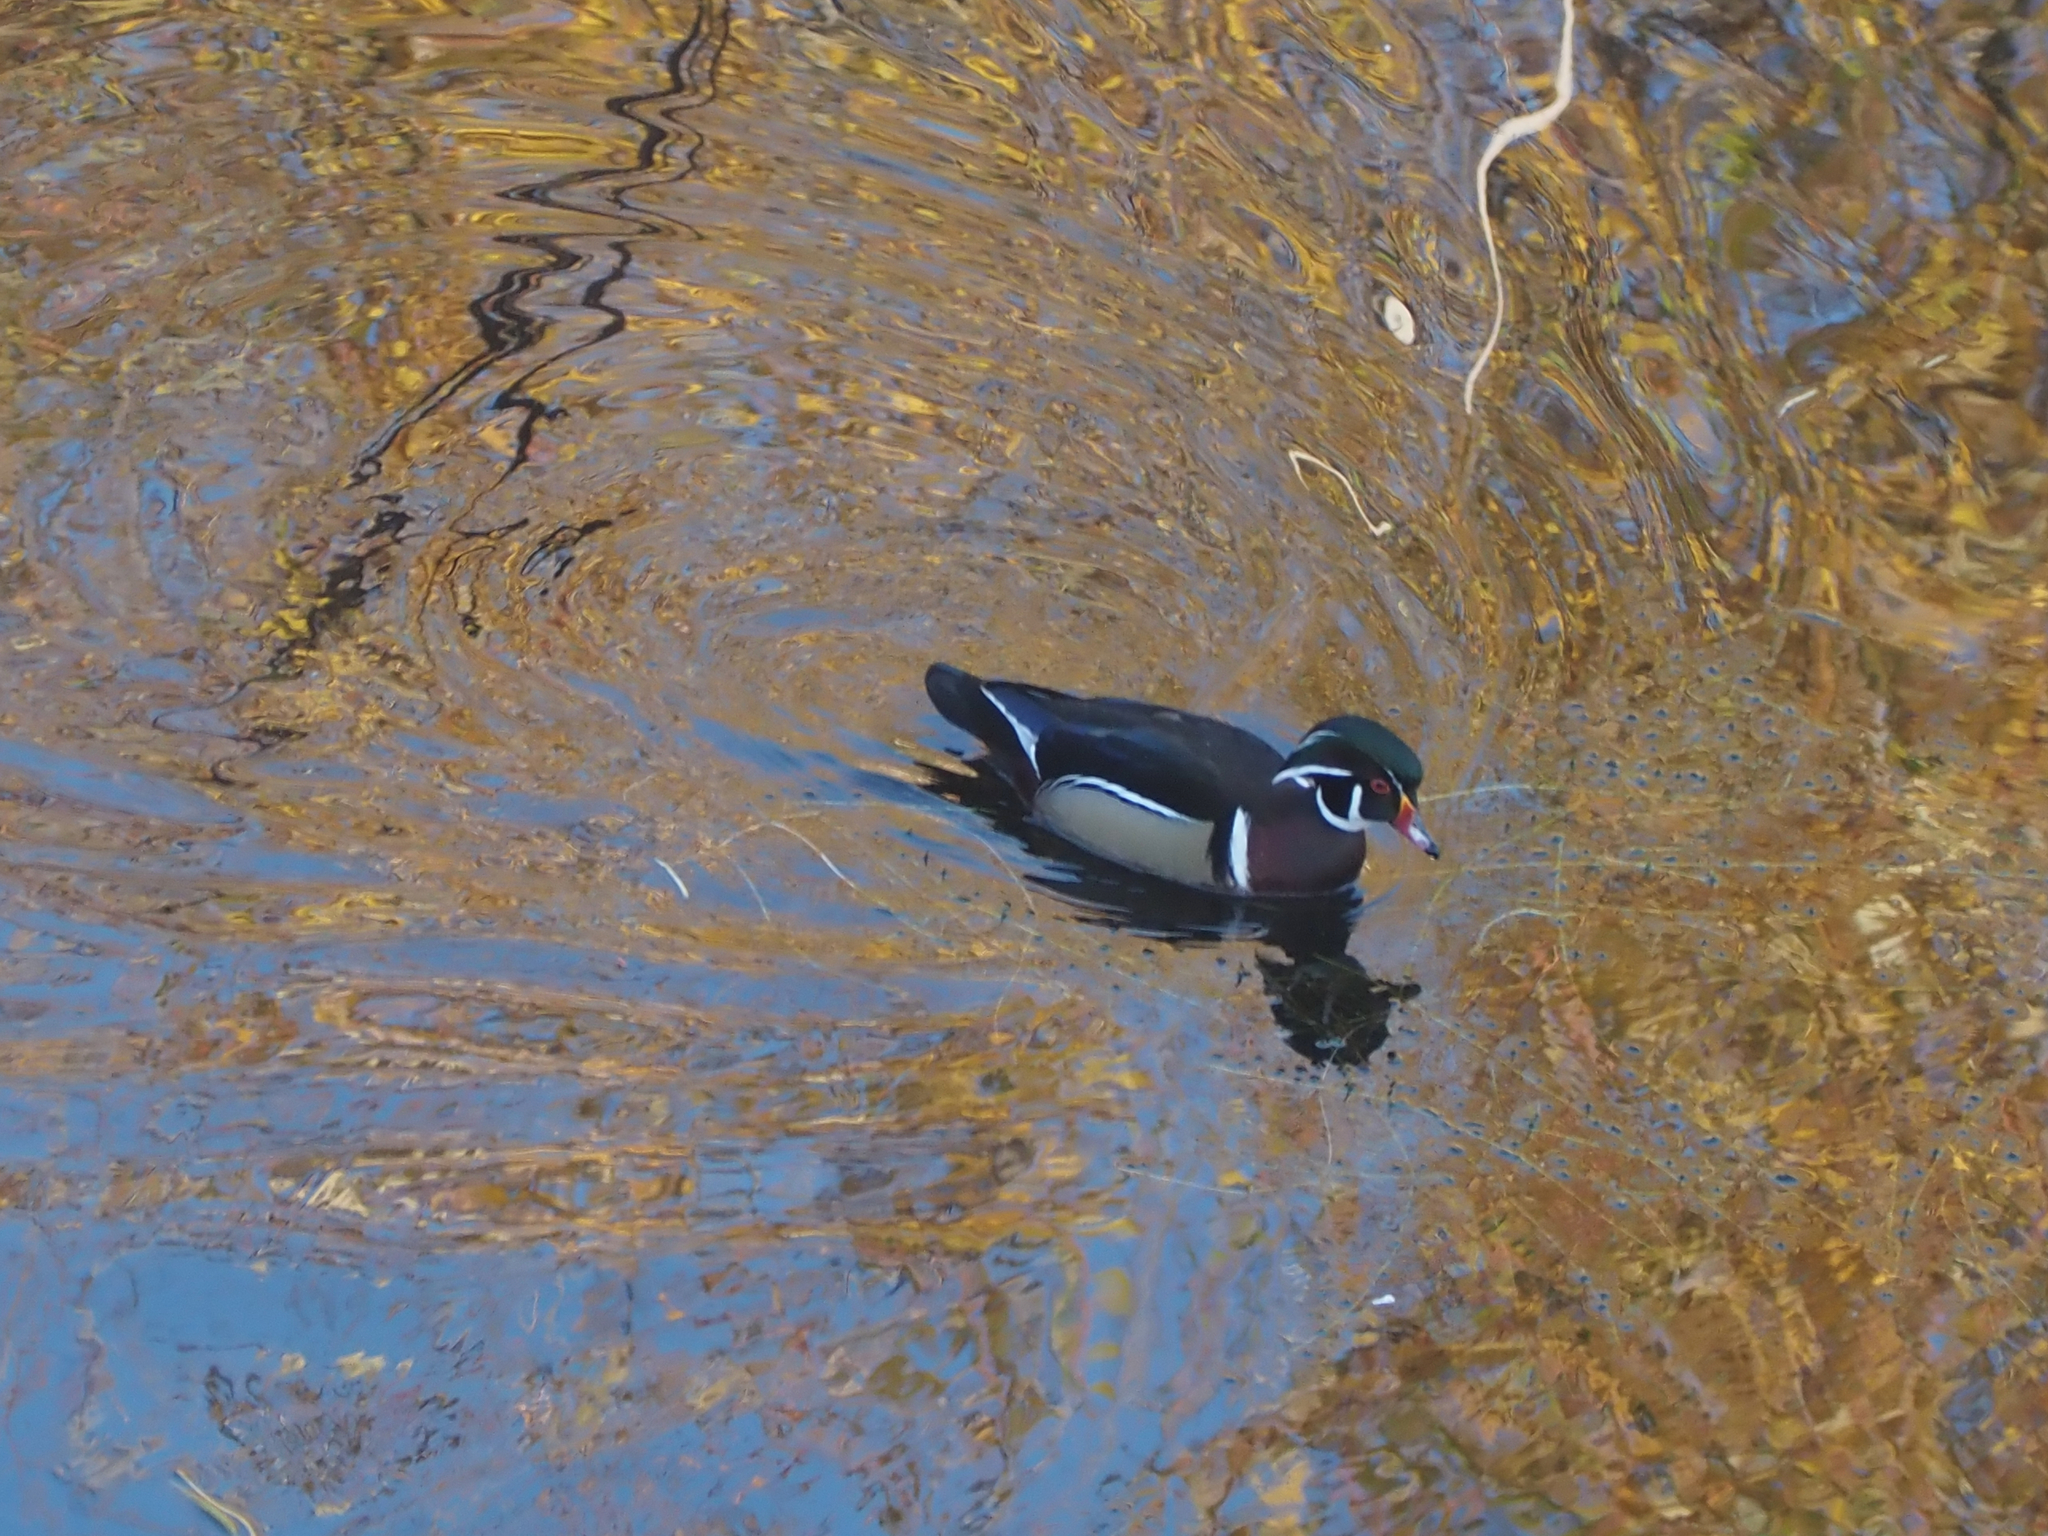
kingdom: Animalia
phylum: Chordata
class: Aves
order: Anseriformes
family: Anatidae
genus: Aix
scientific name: Aix sponsa
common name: Wood duck
